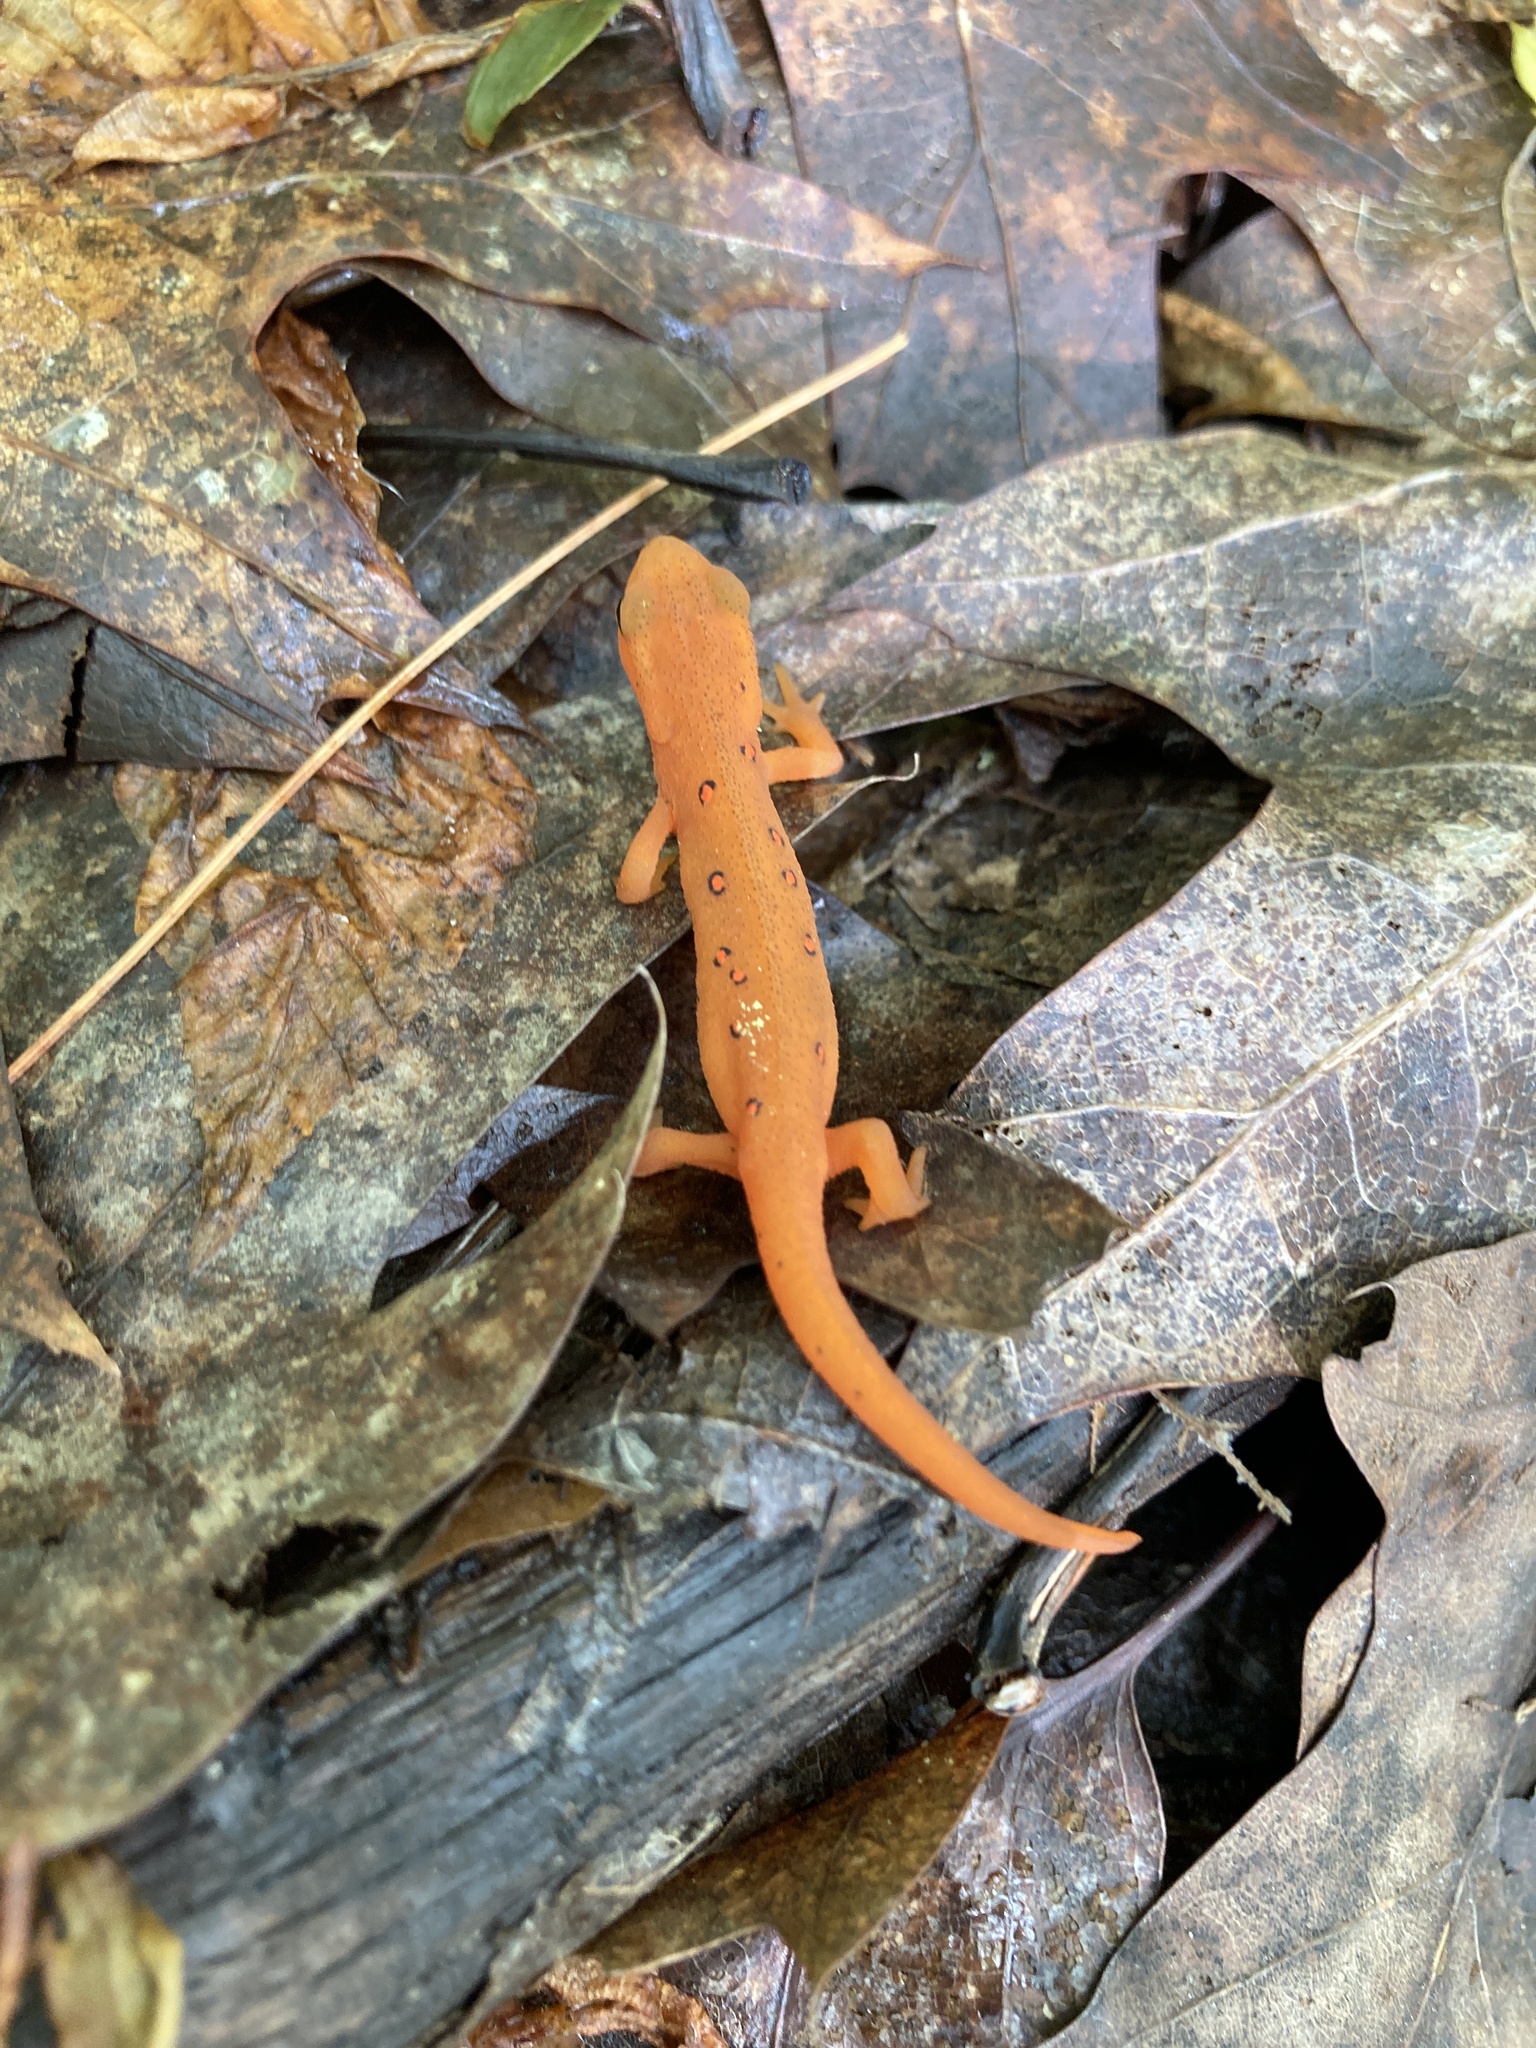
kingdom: Animalia
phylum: Chordata
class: Amphibia
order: Caudata
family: Salamandridae
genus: Notophthalmus
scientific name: Notophthalmus viridescens
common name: Eastern newt
